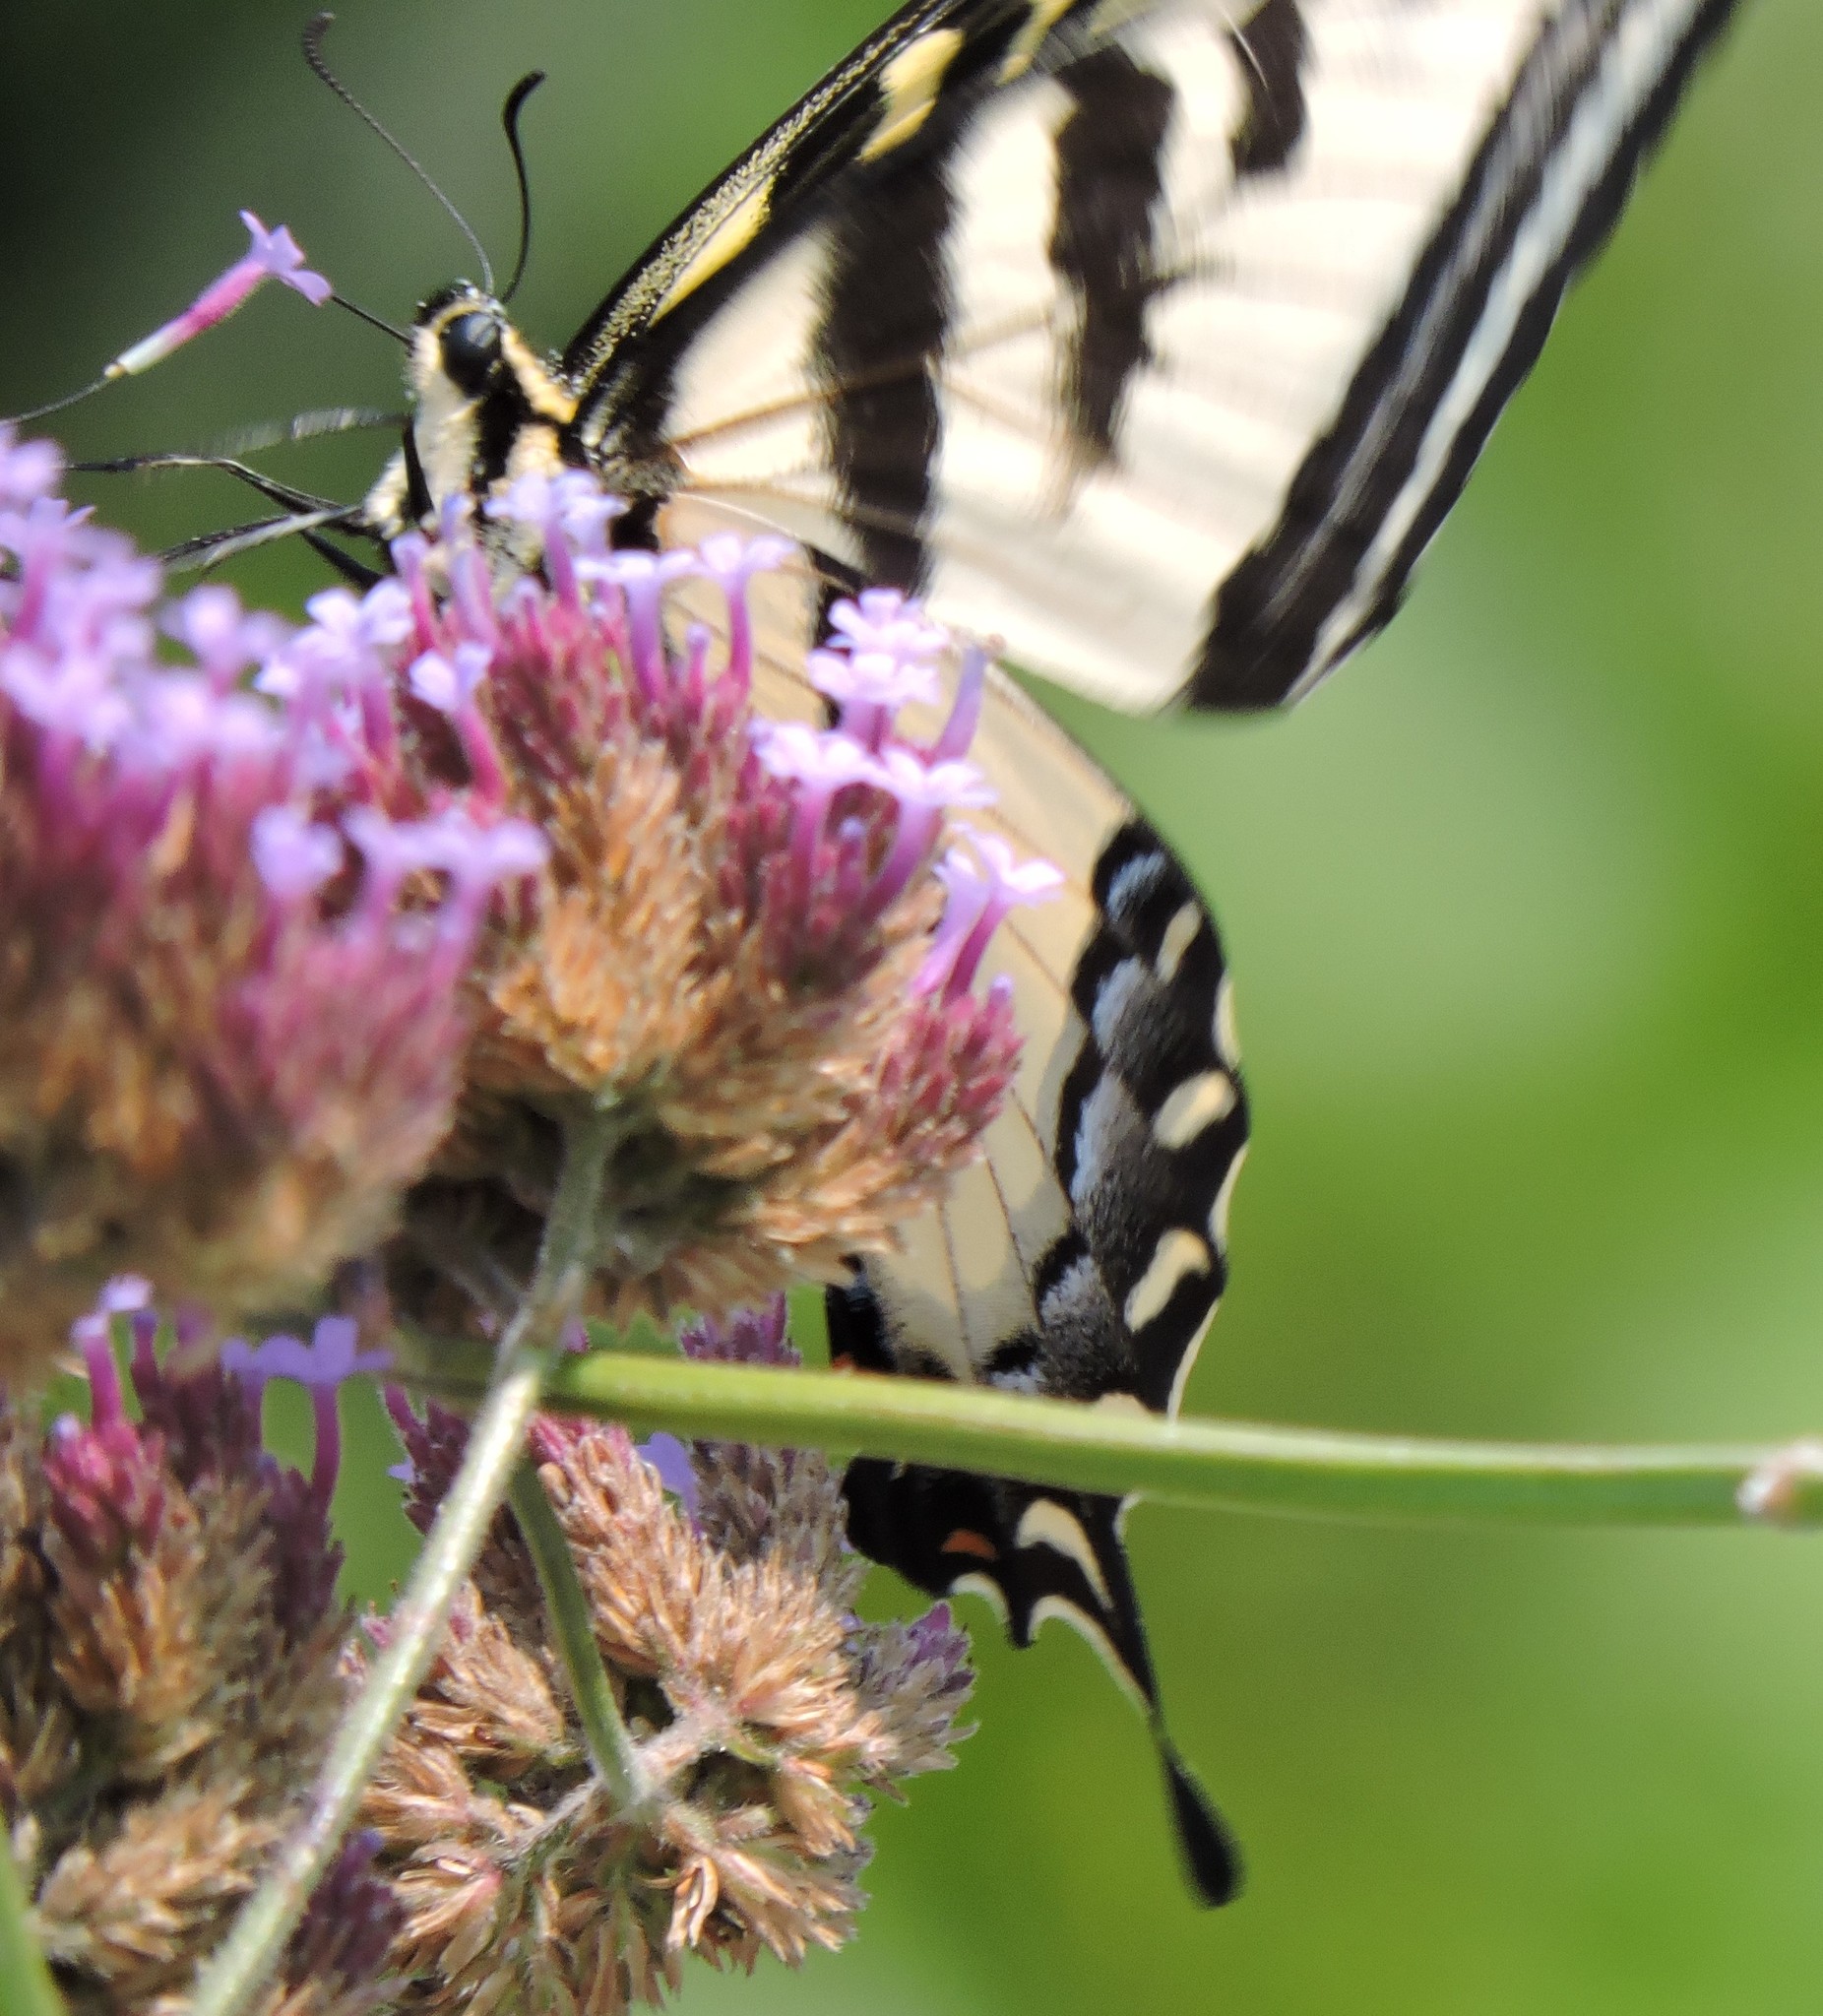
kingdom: Animalia
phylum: Arthropoda
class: Insecta
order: Lepidoptera
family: Papilionidae
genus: Papilio
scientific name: Papilio rutulus
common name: Western tiger swallowtail
